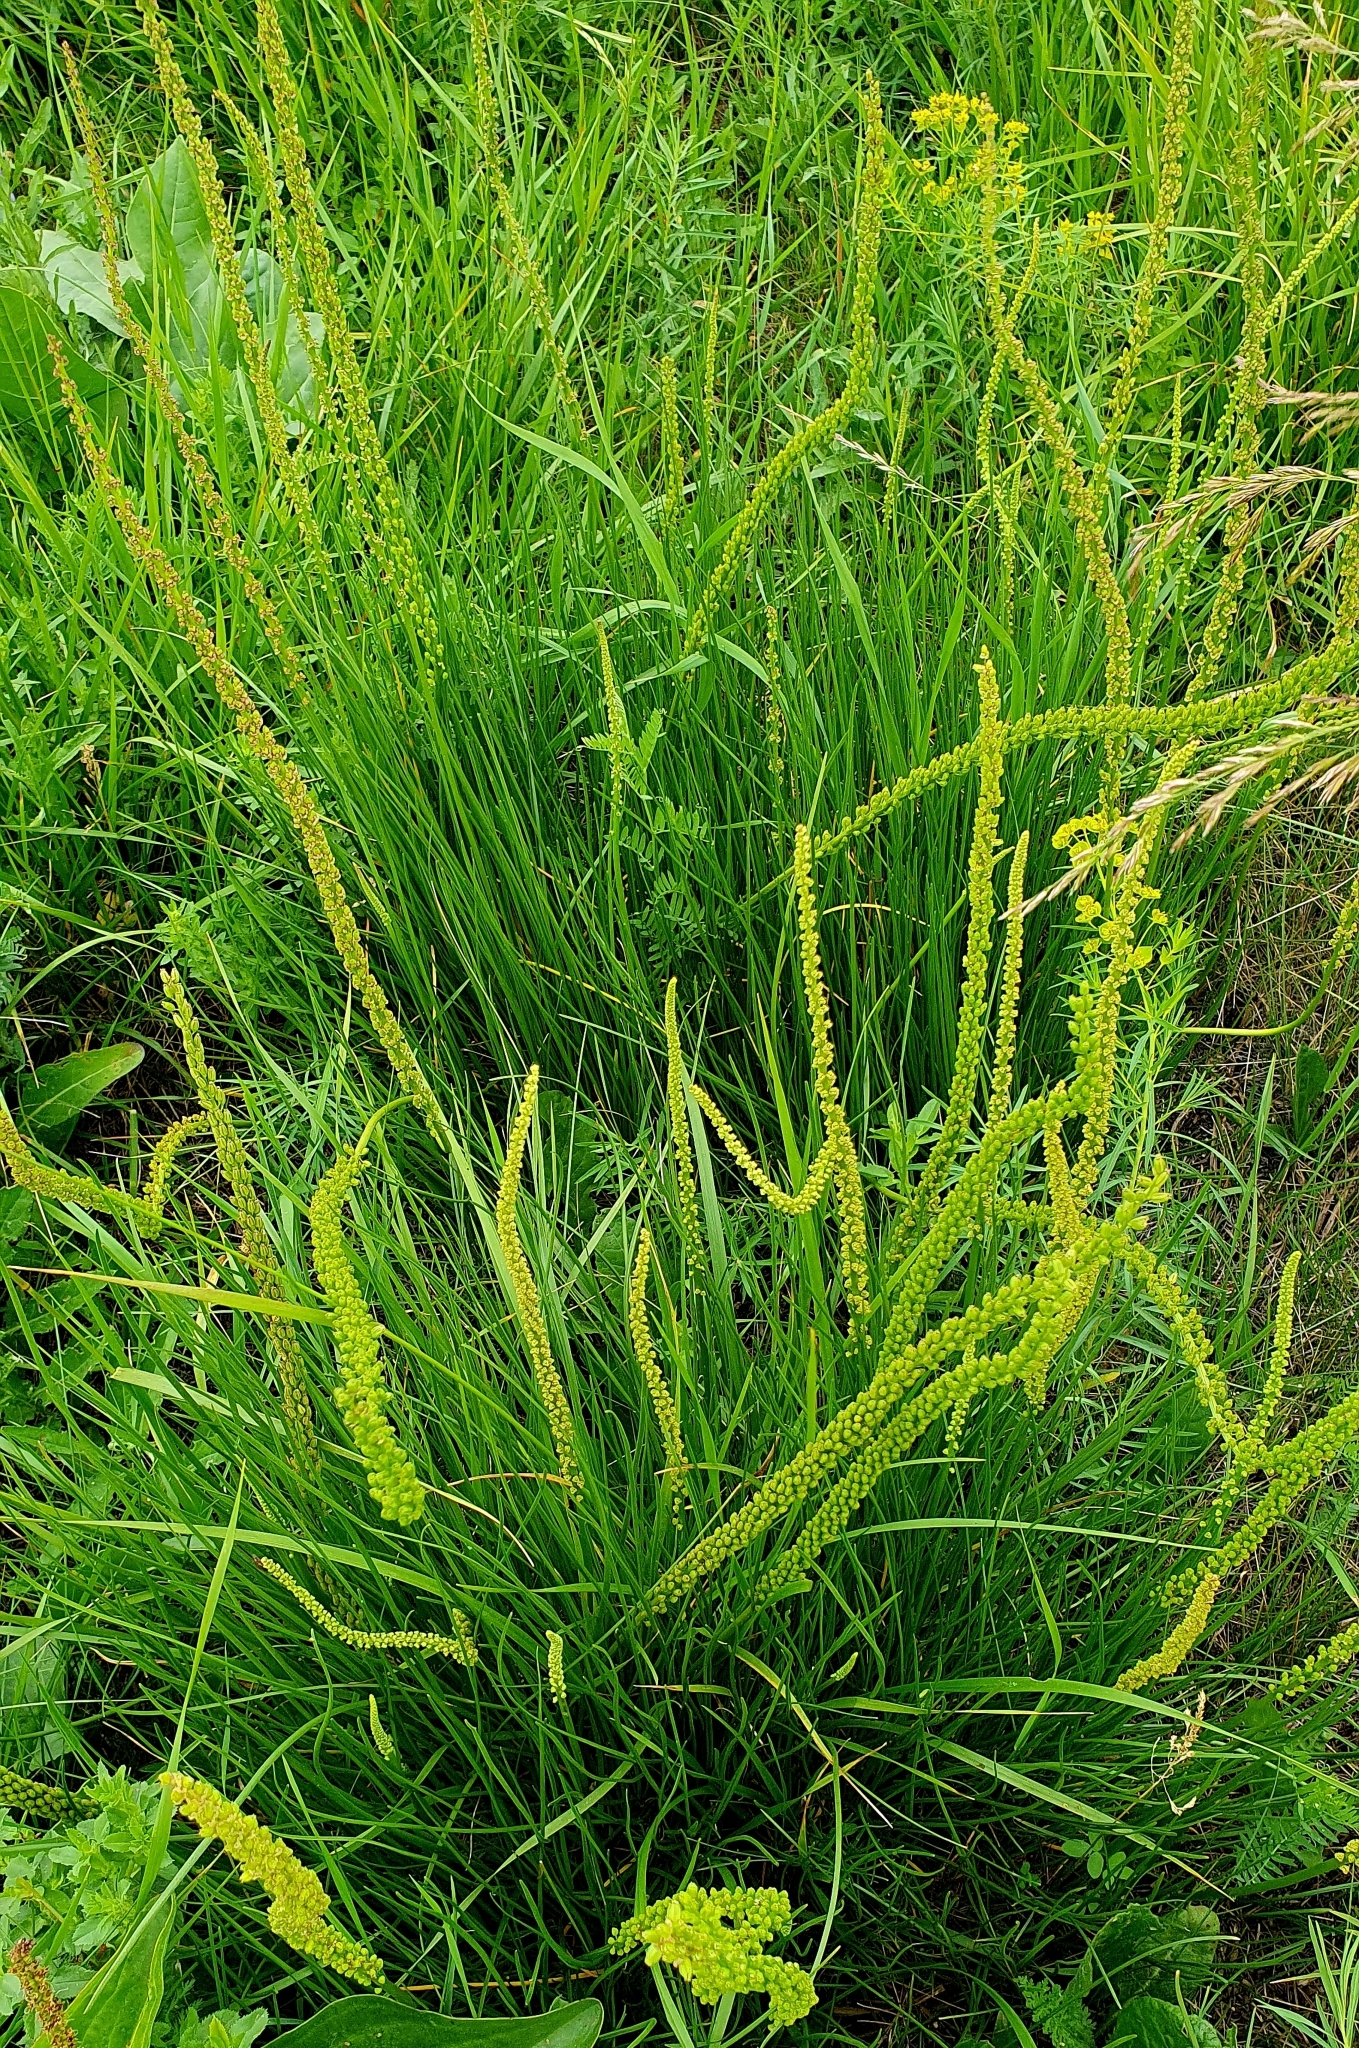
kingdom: Plantae
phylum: Tracheophyta
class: Liliopsida
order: Alismatales
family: Juncaginaceae
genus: Triglochin
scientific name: Triglochin maritima
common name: Sea arrowgrass
